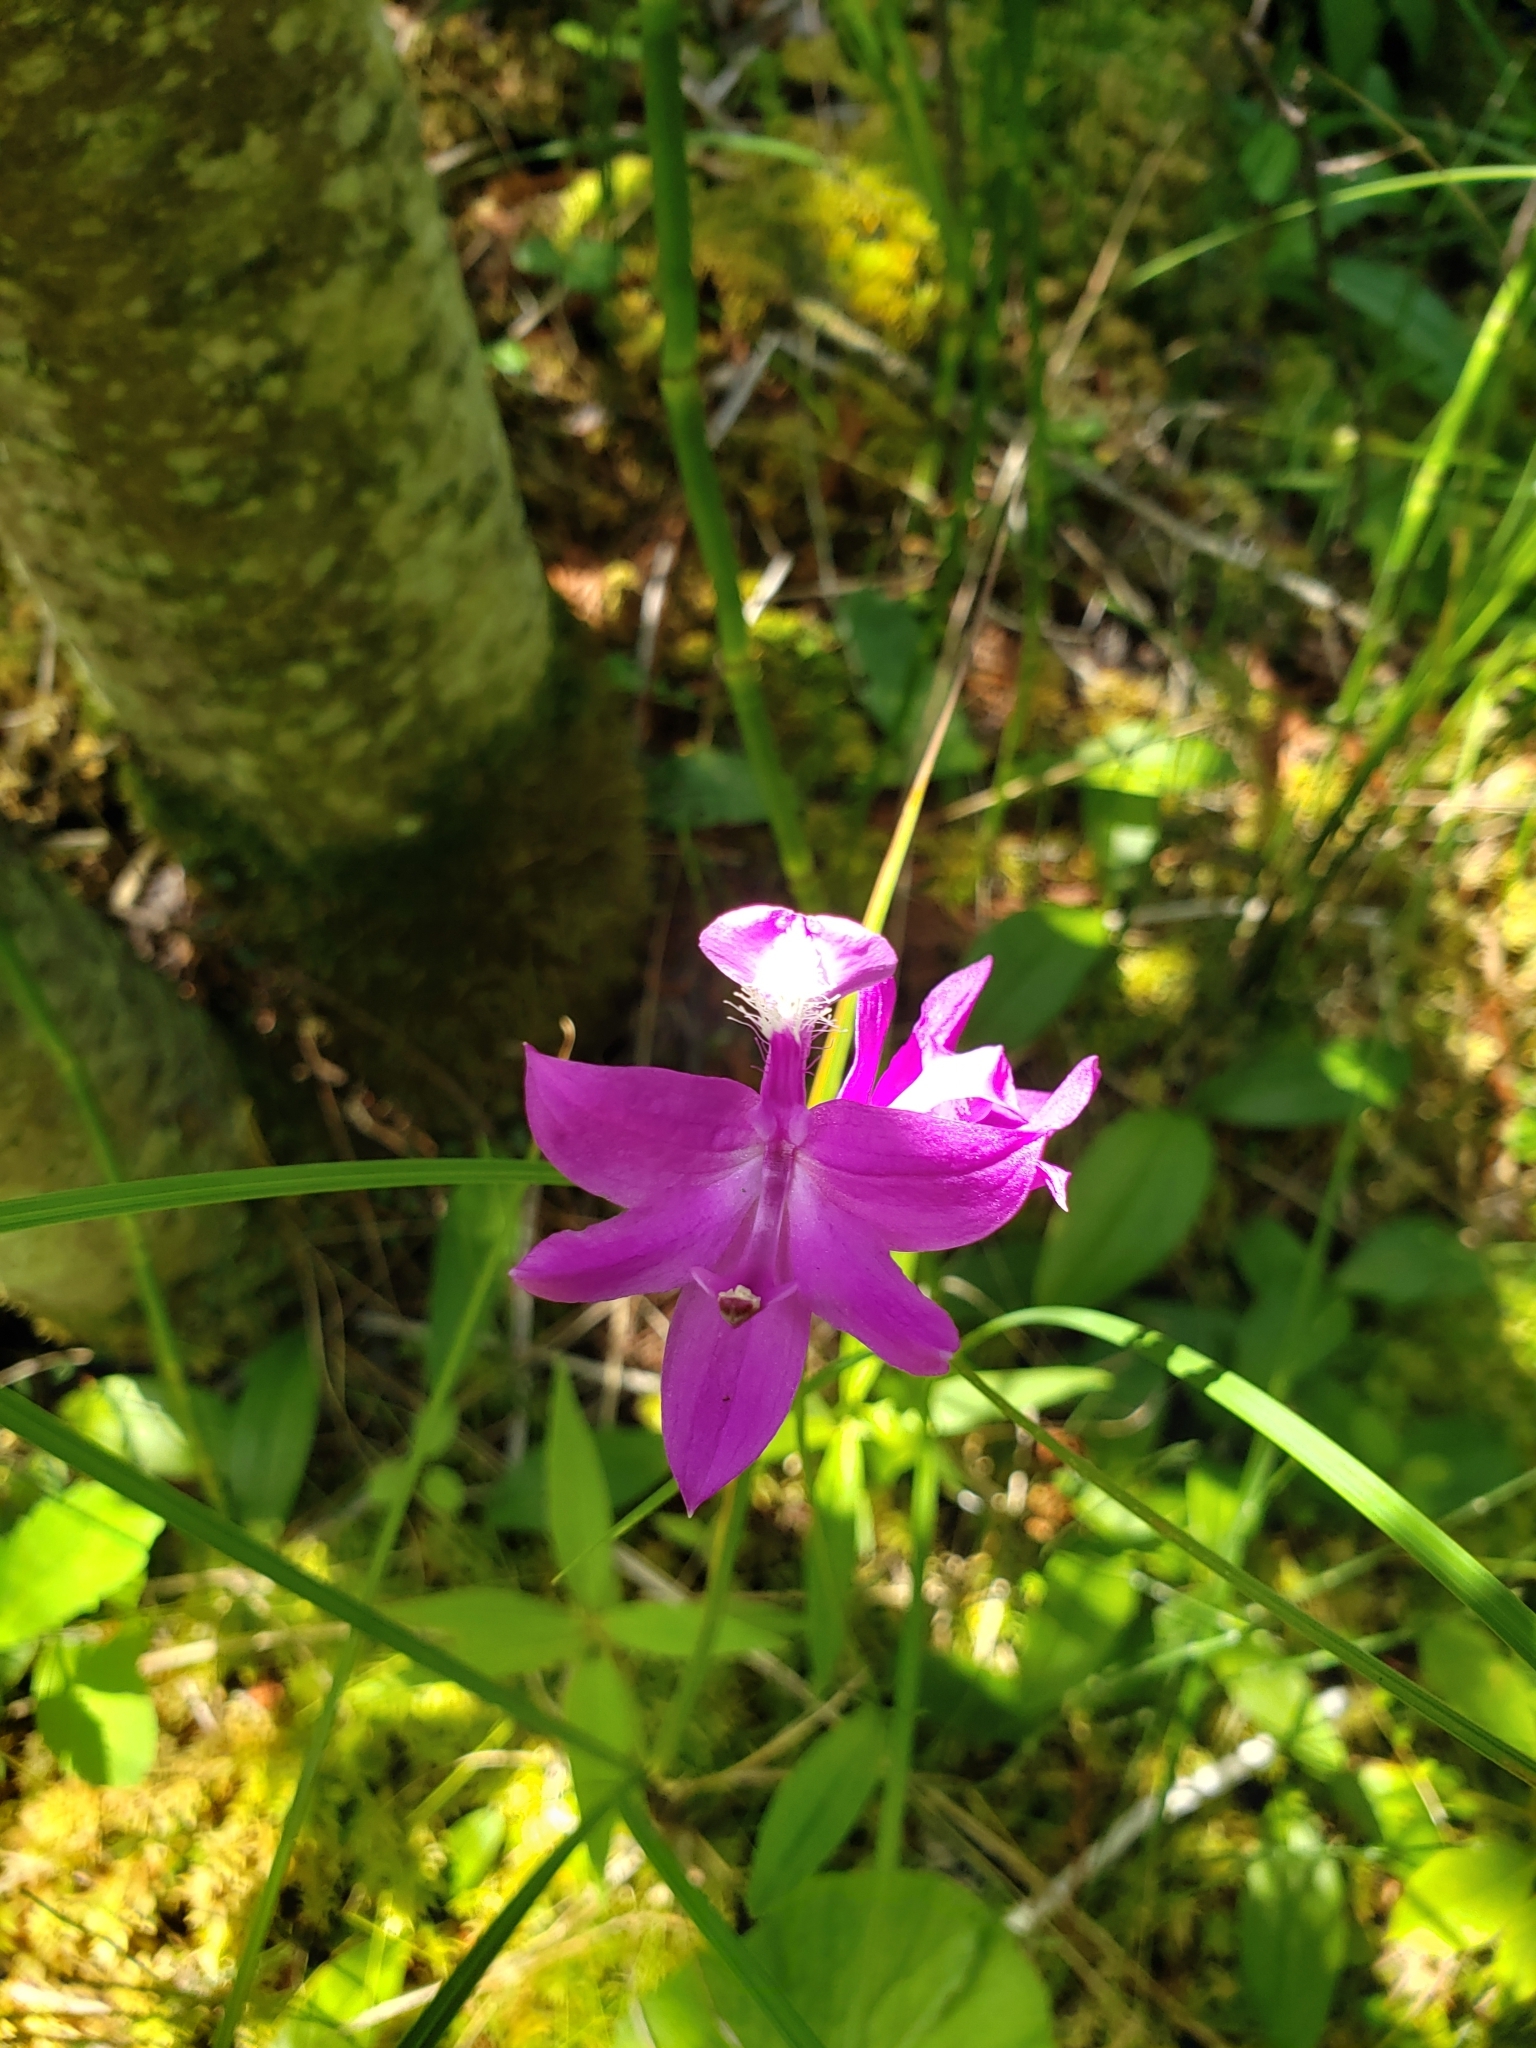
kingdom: Plantae
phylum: Tracheophyta
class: Liliopsida
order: Asparagales
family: Orchidaceae
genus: Calopogon
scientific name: Calopogon tuberosus
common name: Grass-pink
